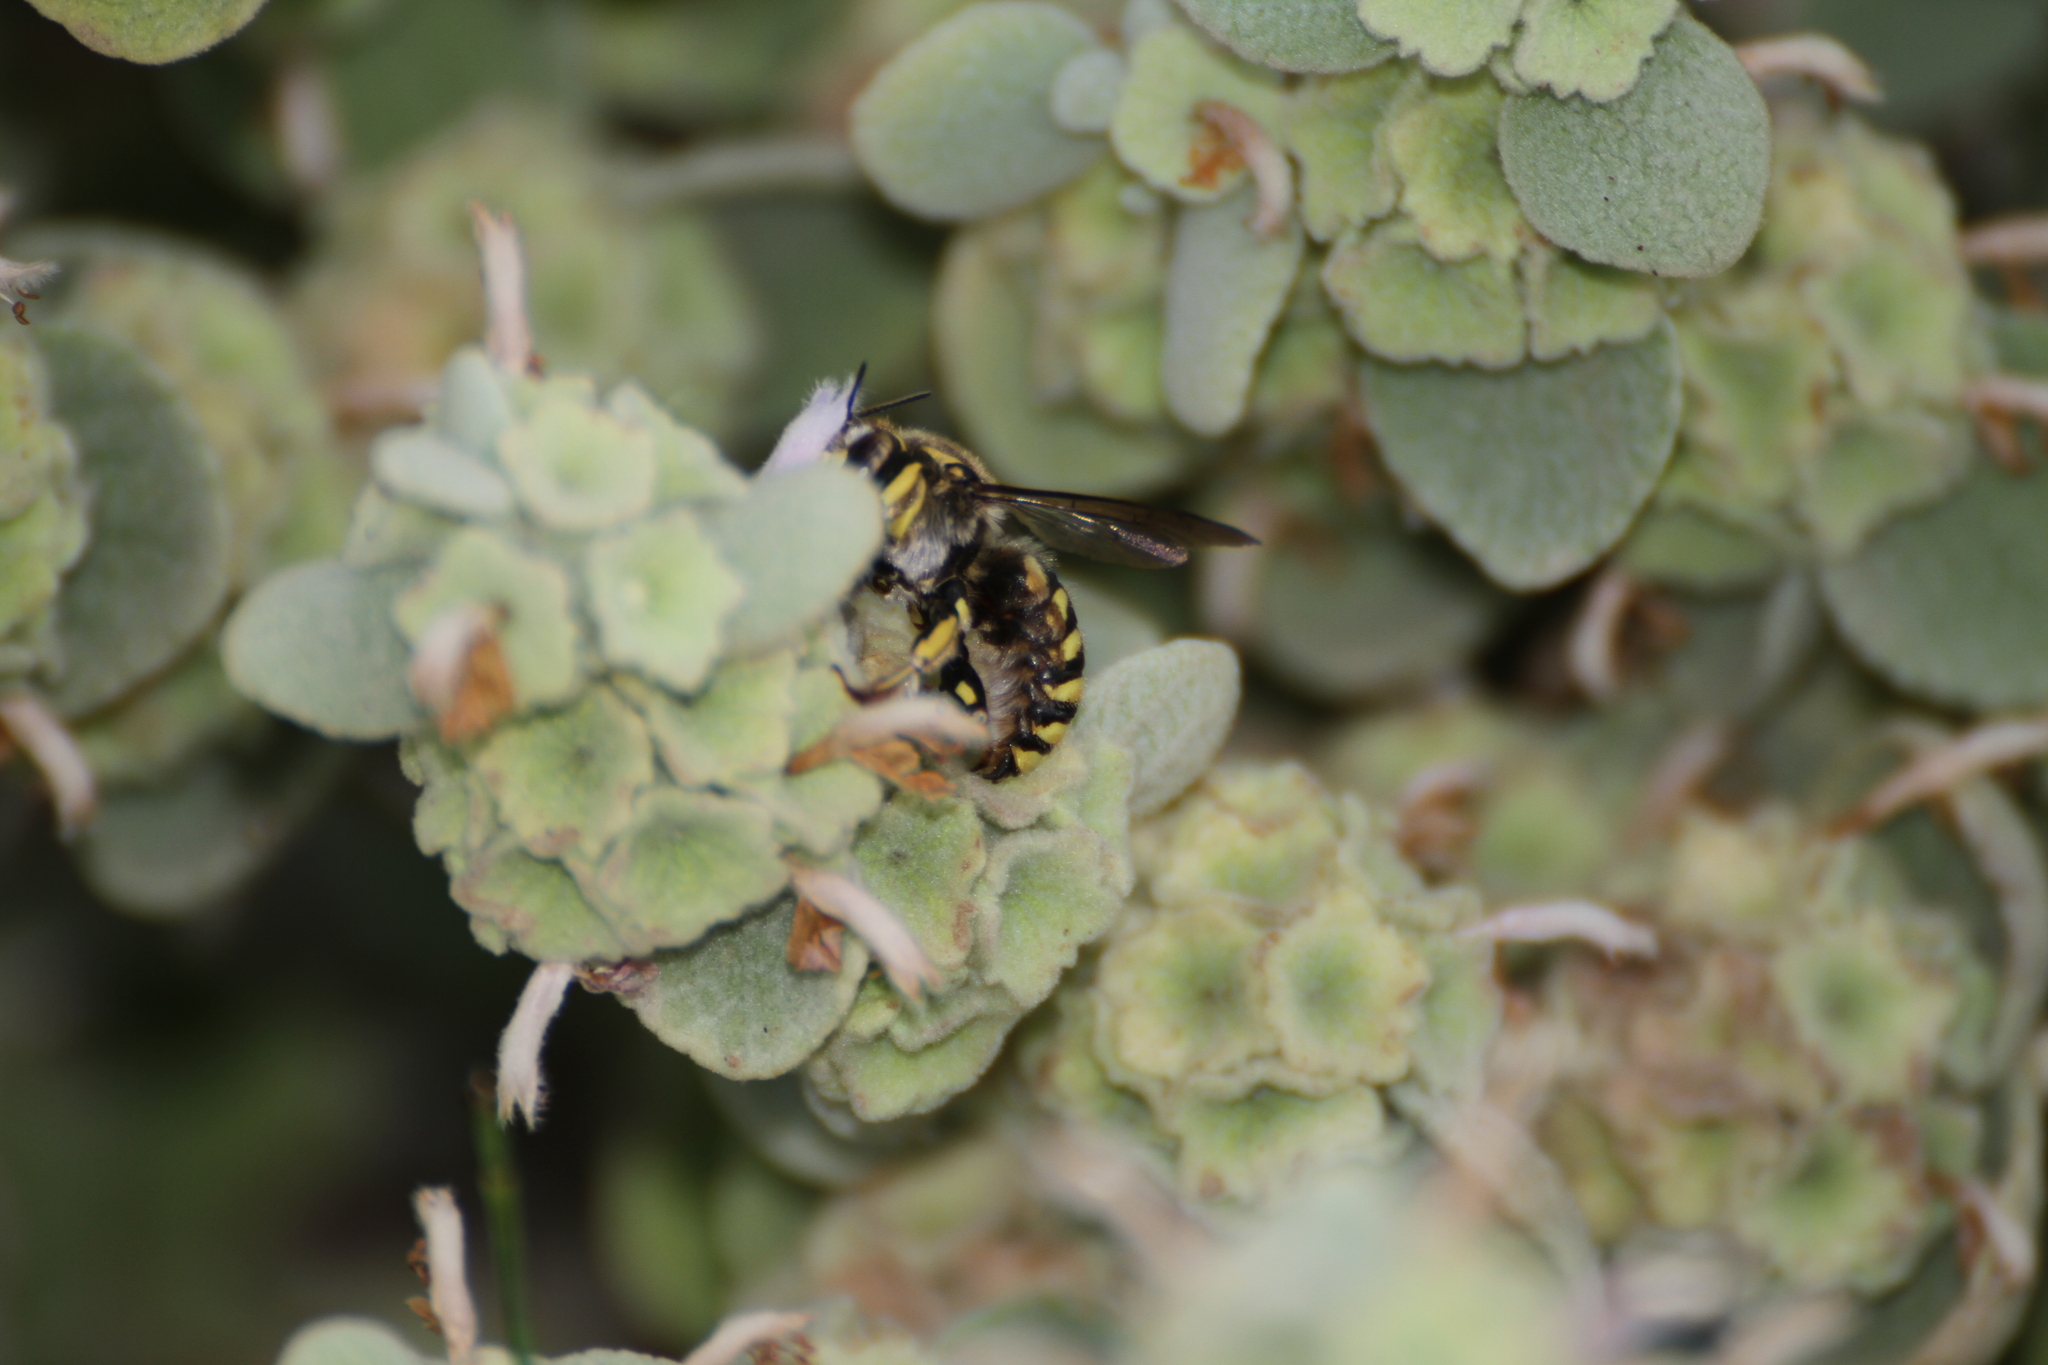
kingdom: Animalia
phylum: Arthropoda
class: Insecta
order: Hymenoptera
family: Megachilidae
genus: Anthidium
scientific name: Anthidium florentinum
